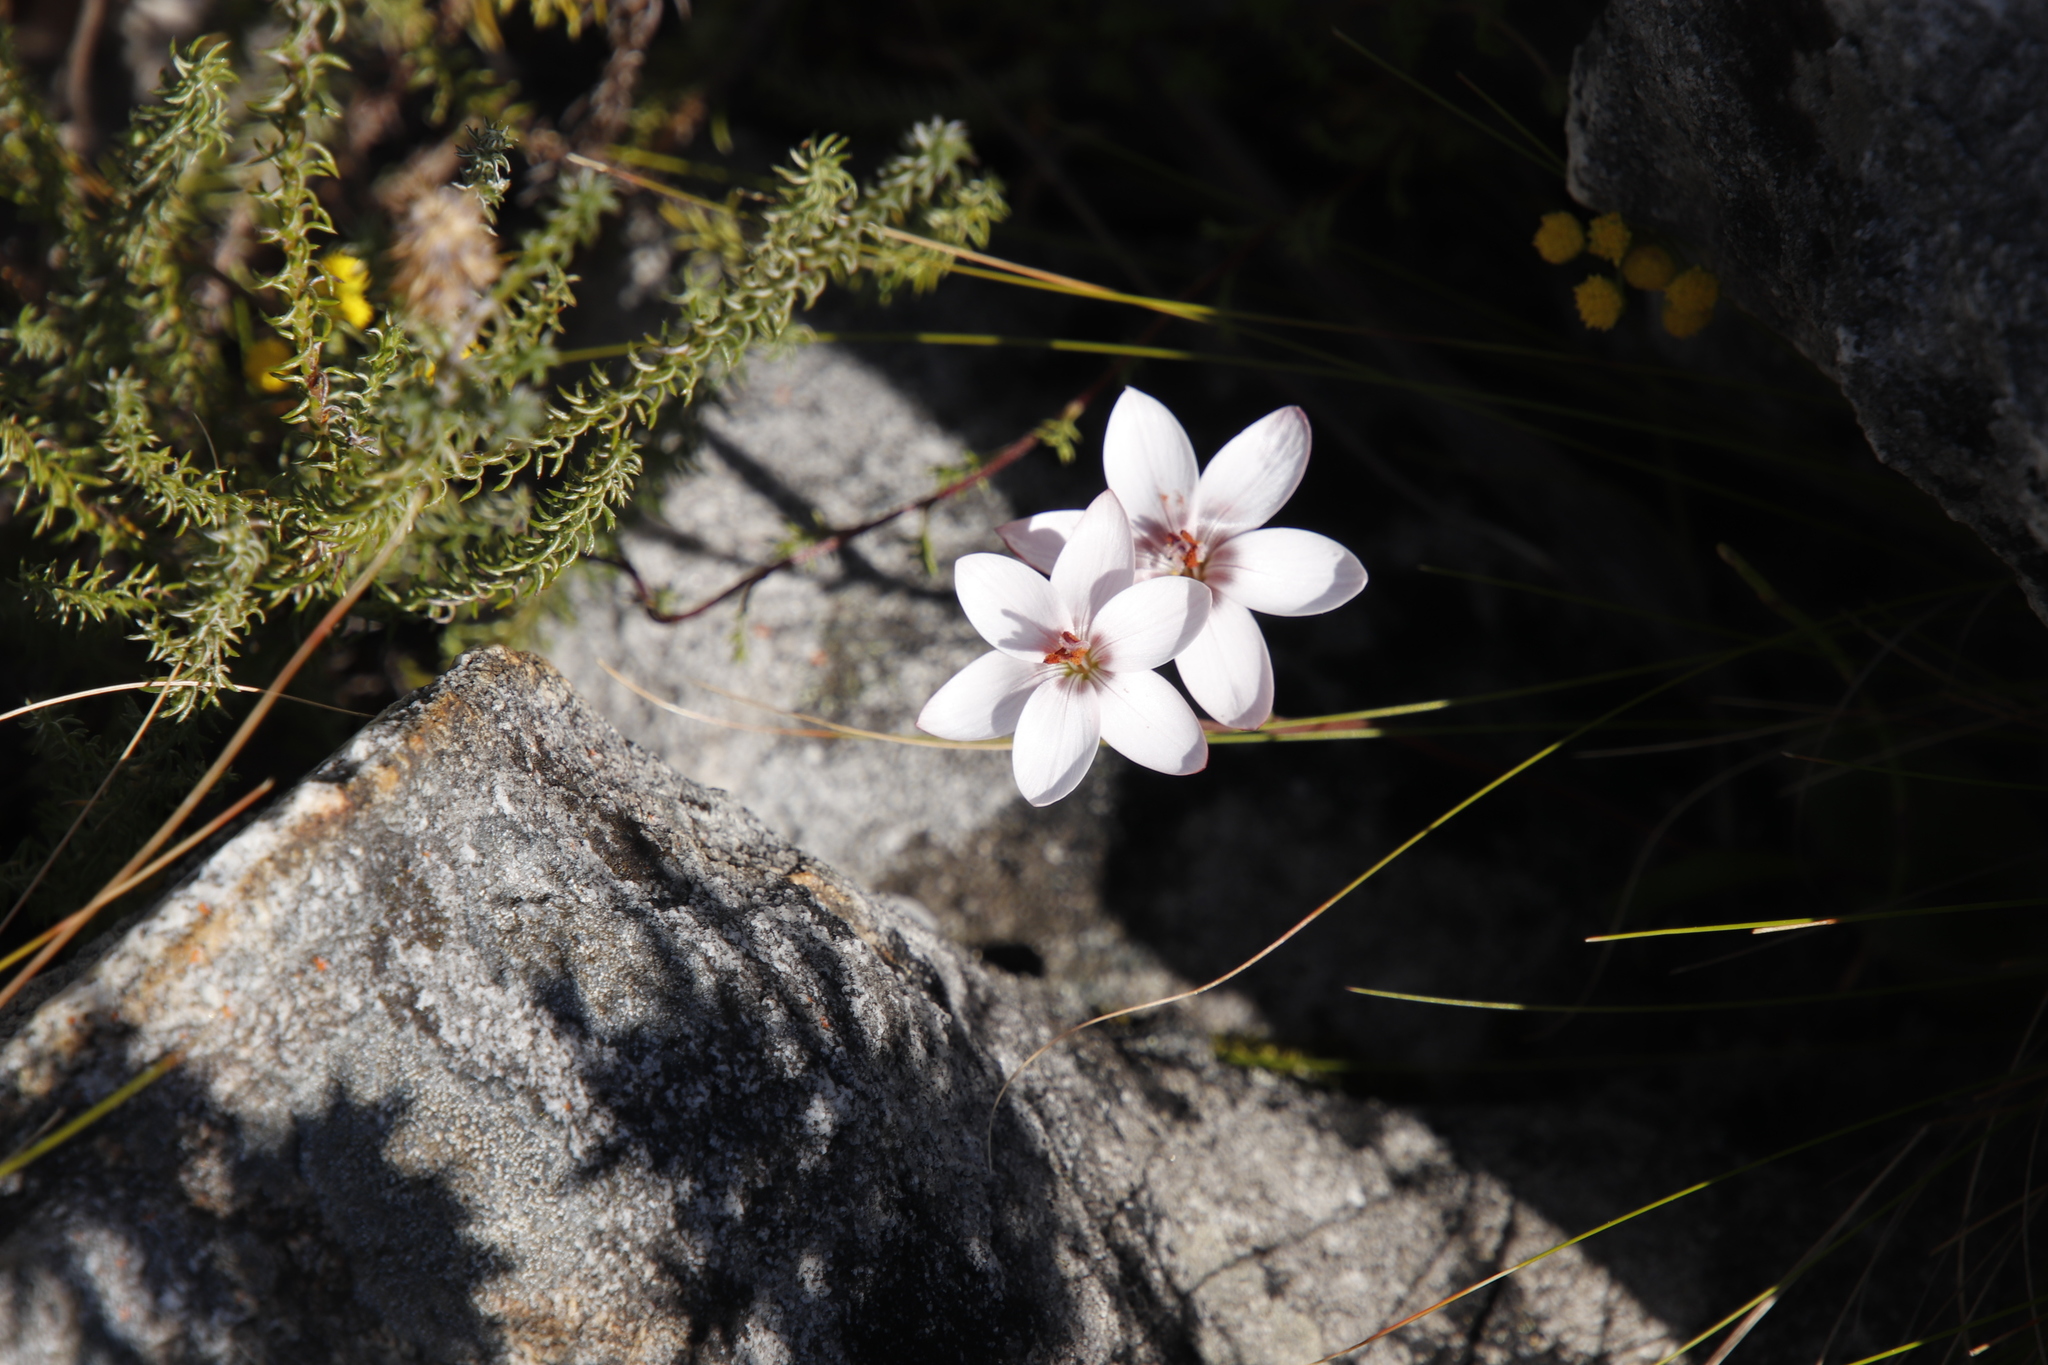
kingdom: Plantae
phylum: Tracheophyta
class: Liliopsida
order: Asparagales
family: Iridaceae
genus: Geissorhiza
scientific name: Geissorhiza ovata
